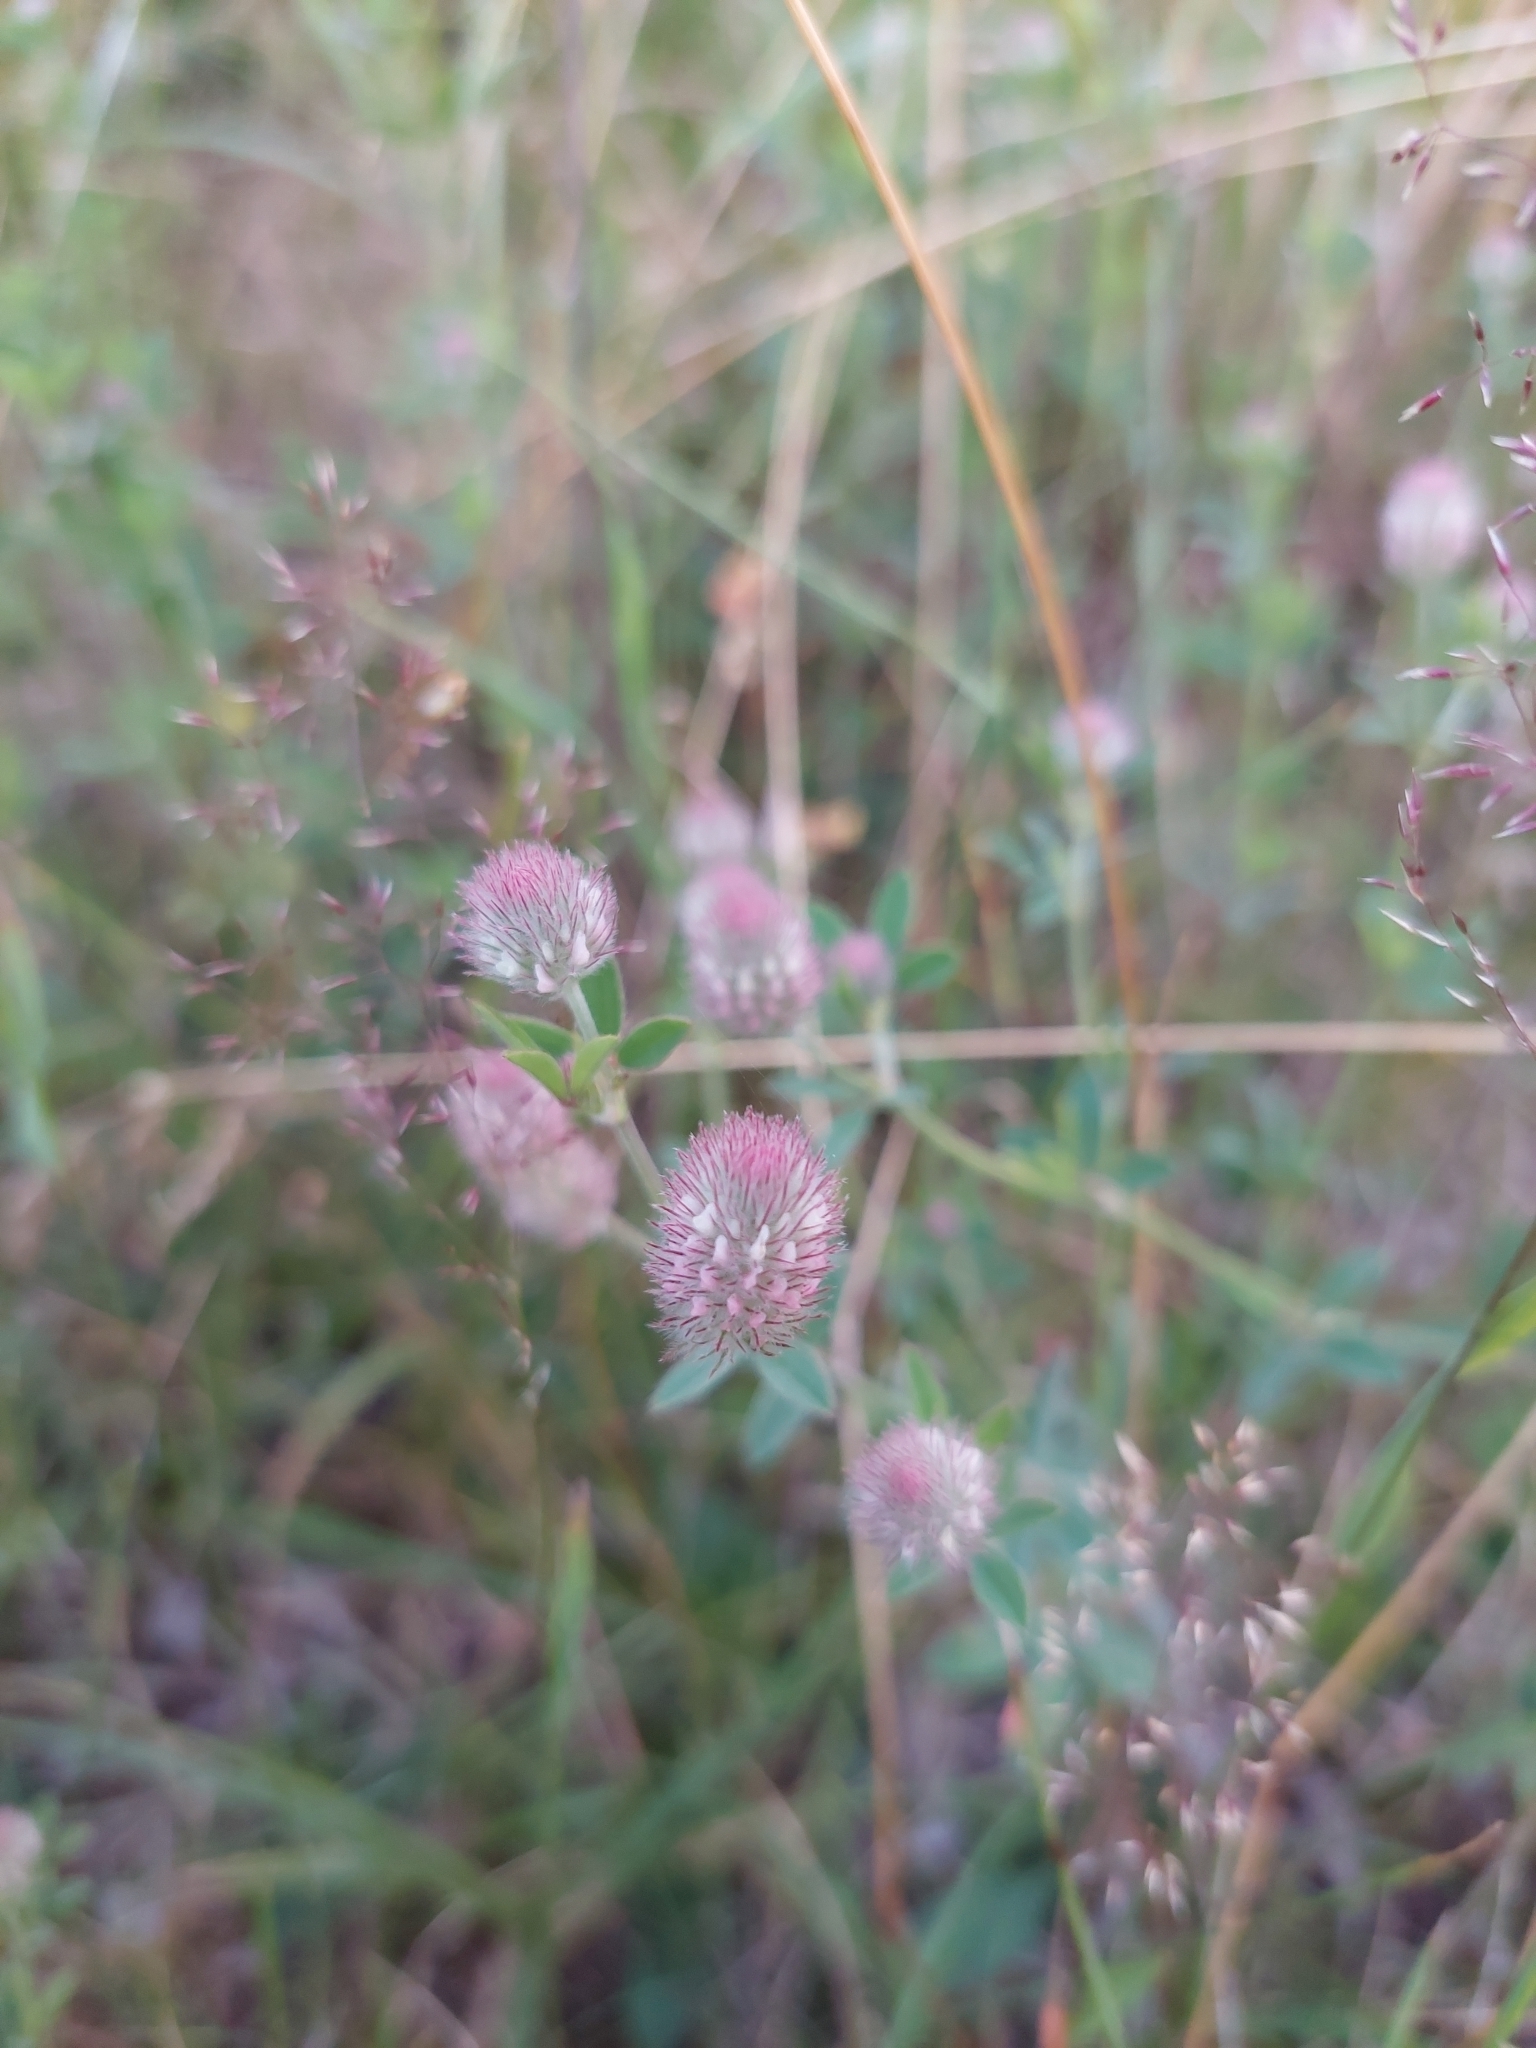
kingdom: Plantae
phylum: Tracheophyta
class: Magnoliopsida
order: Fabales
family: Fabaceae
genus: Trifolium
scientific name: Trifolium arvense
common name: Hare's-foot clover
